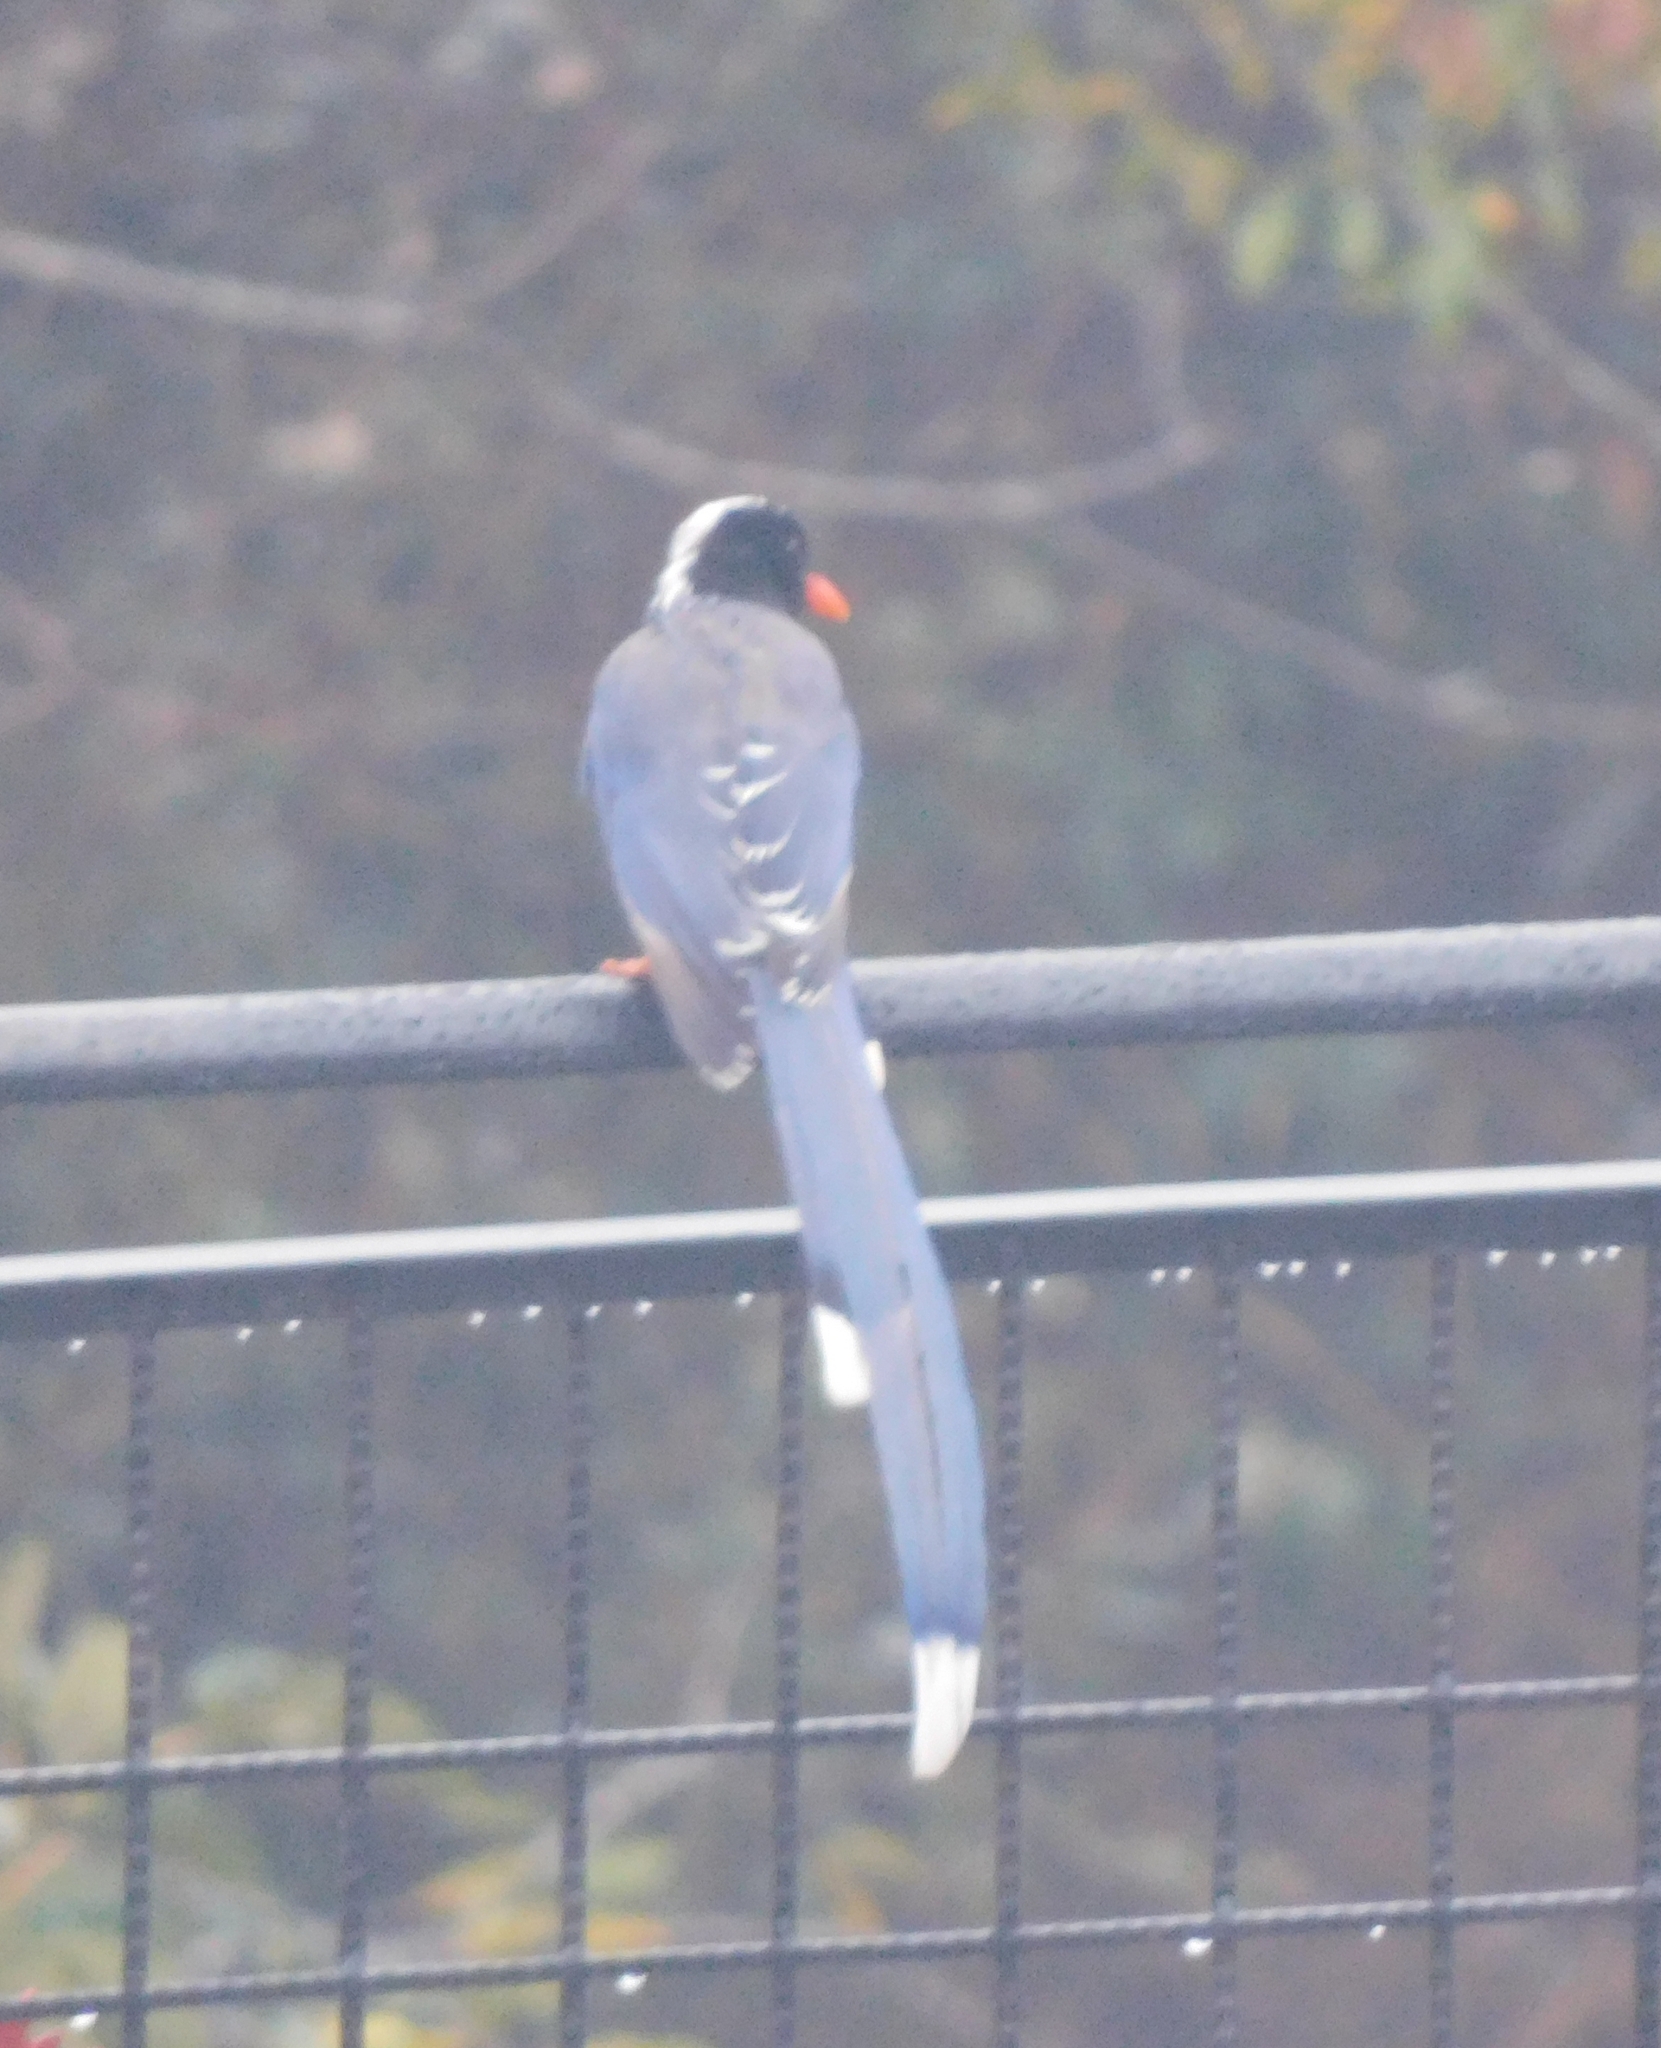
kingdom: Animalia
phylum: Chordata
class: Aves
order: Passeriformes
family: Corvidae
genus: Urocissa
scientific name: Urocissa erythroryncha
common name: Red-billed blue magpie
